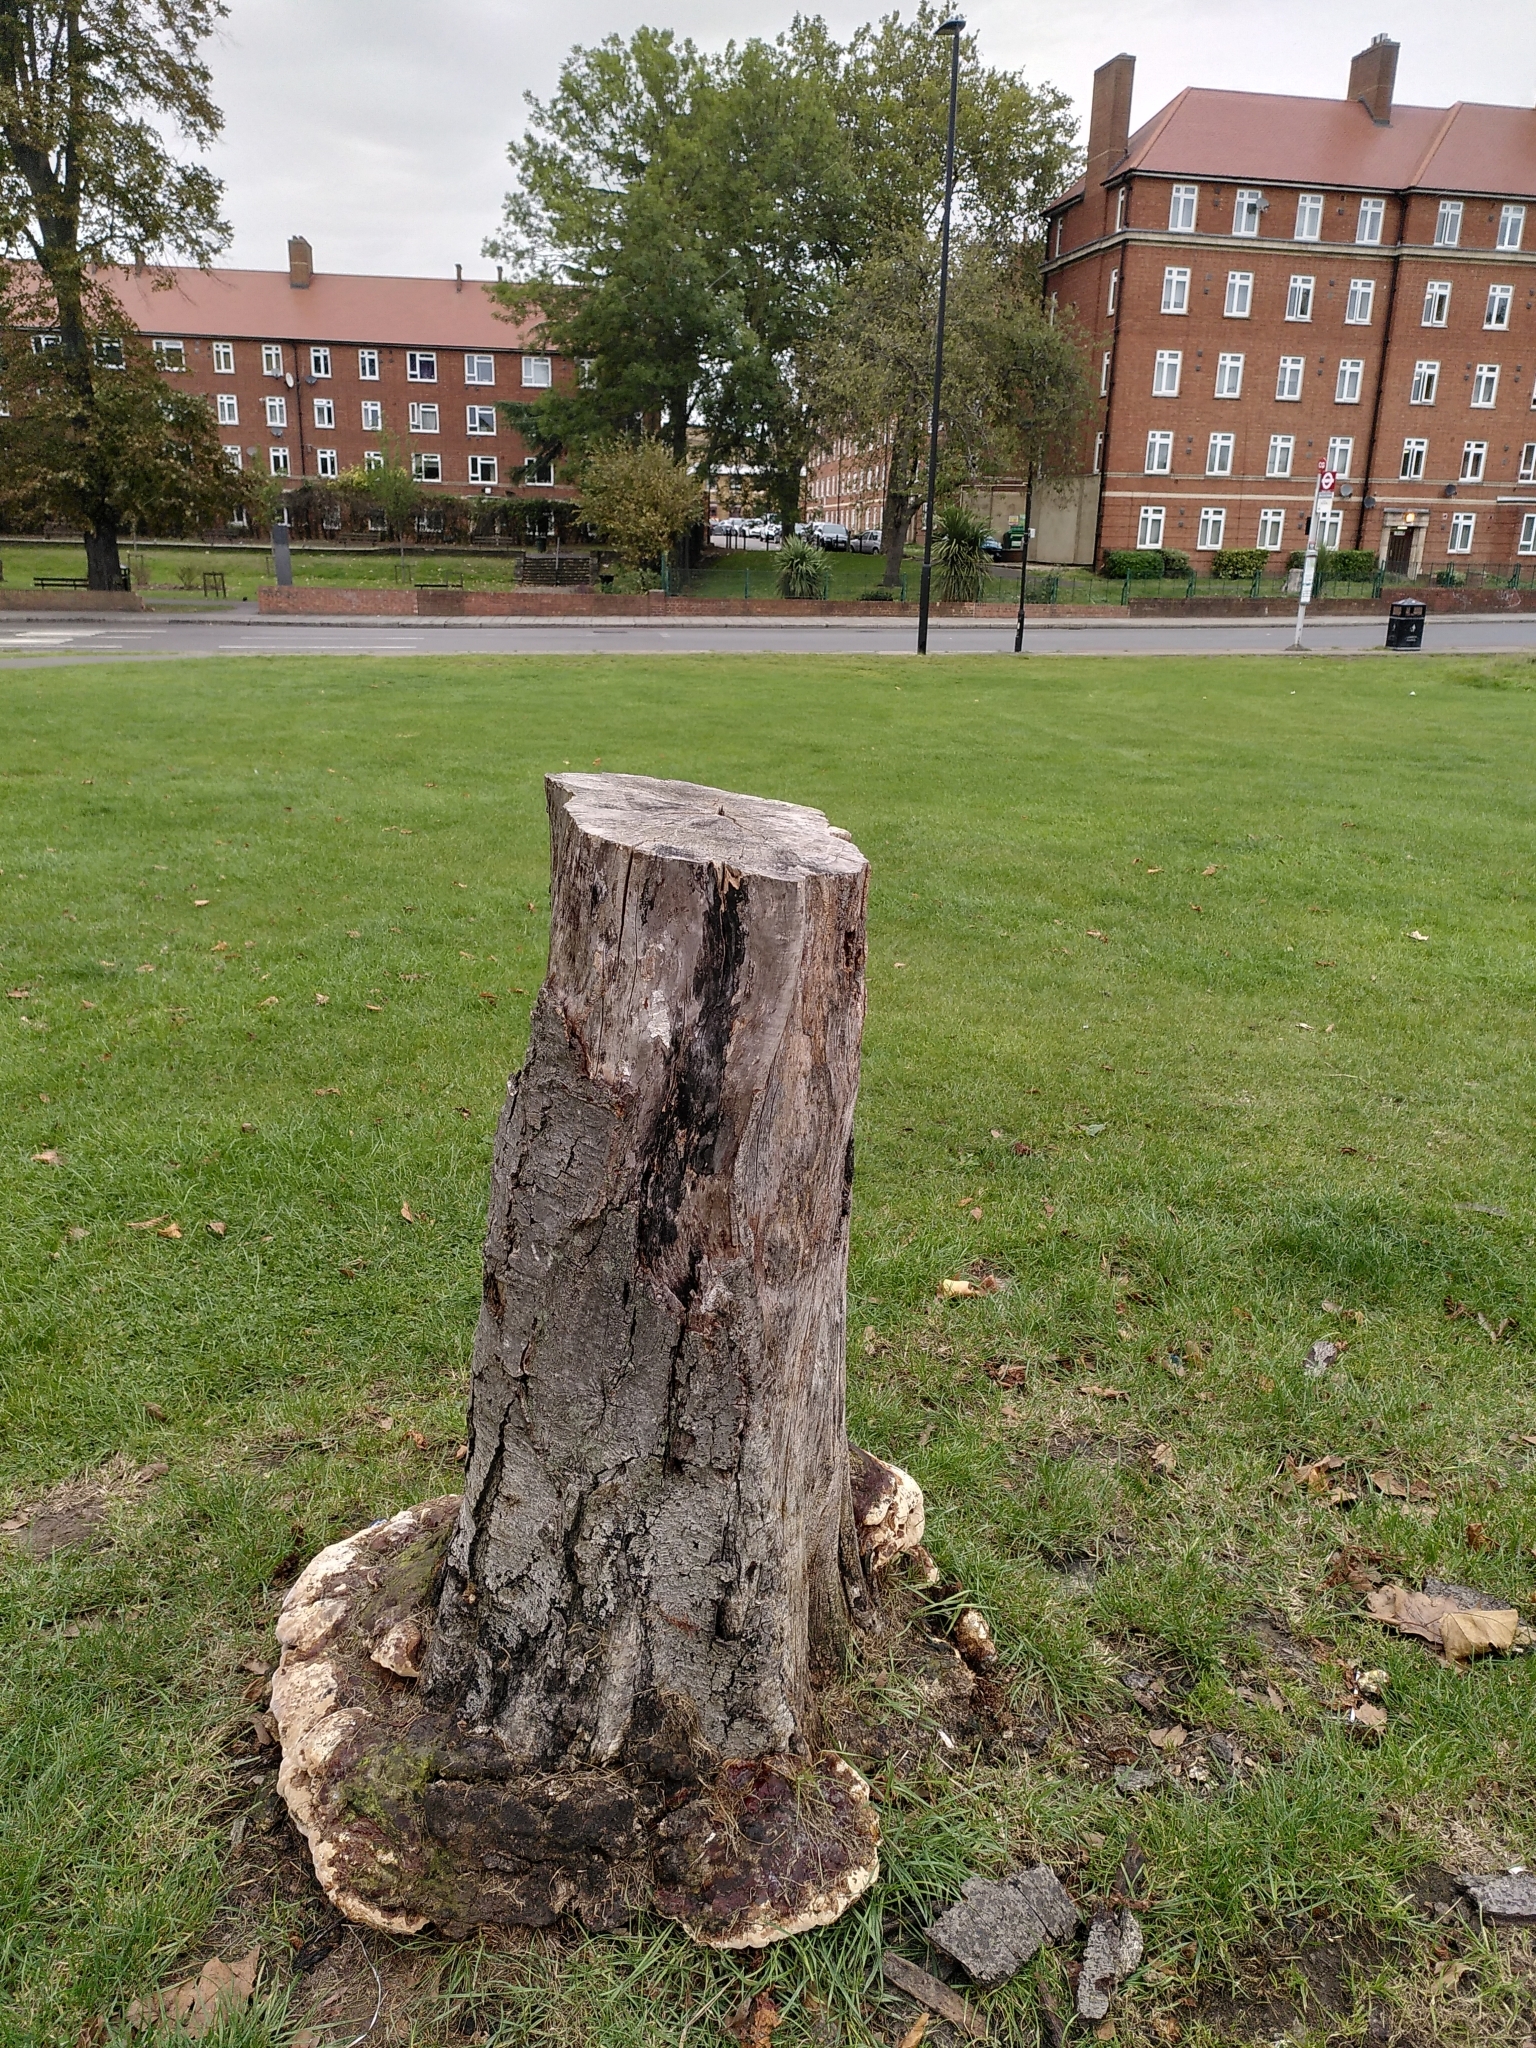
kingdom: Fungi
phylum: Basidiomycota
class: Agaricomycetes
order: Polyporales
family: Polyporaceae
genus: Ganoderma
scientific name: Ganoderma resinaceum
